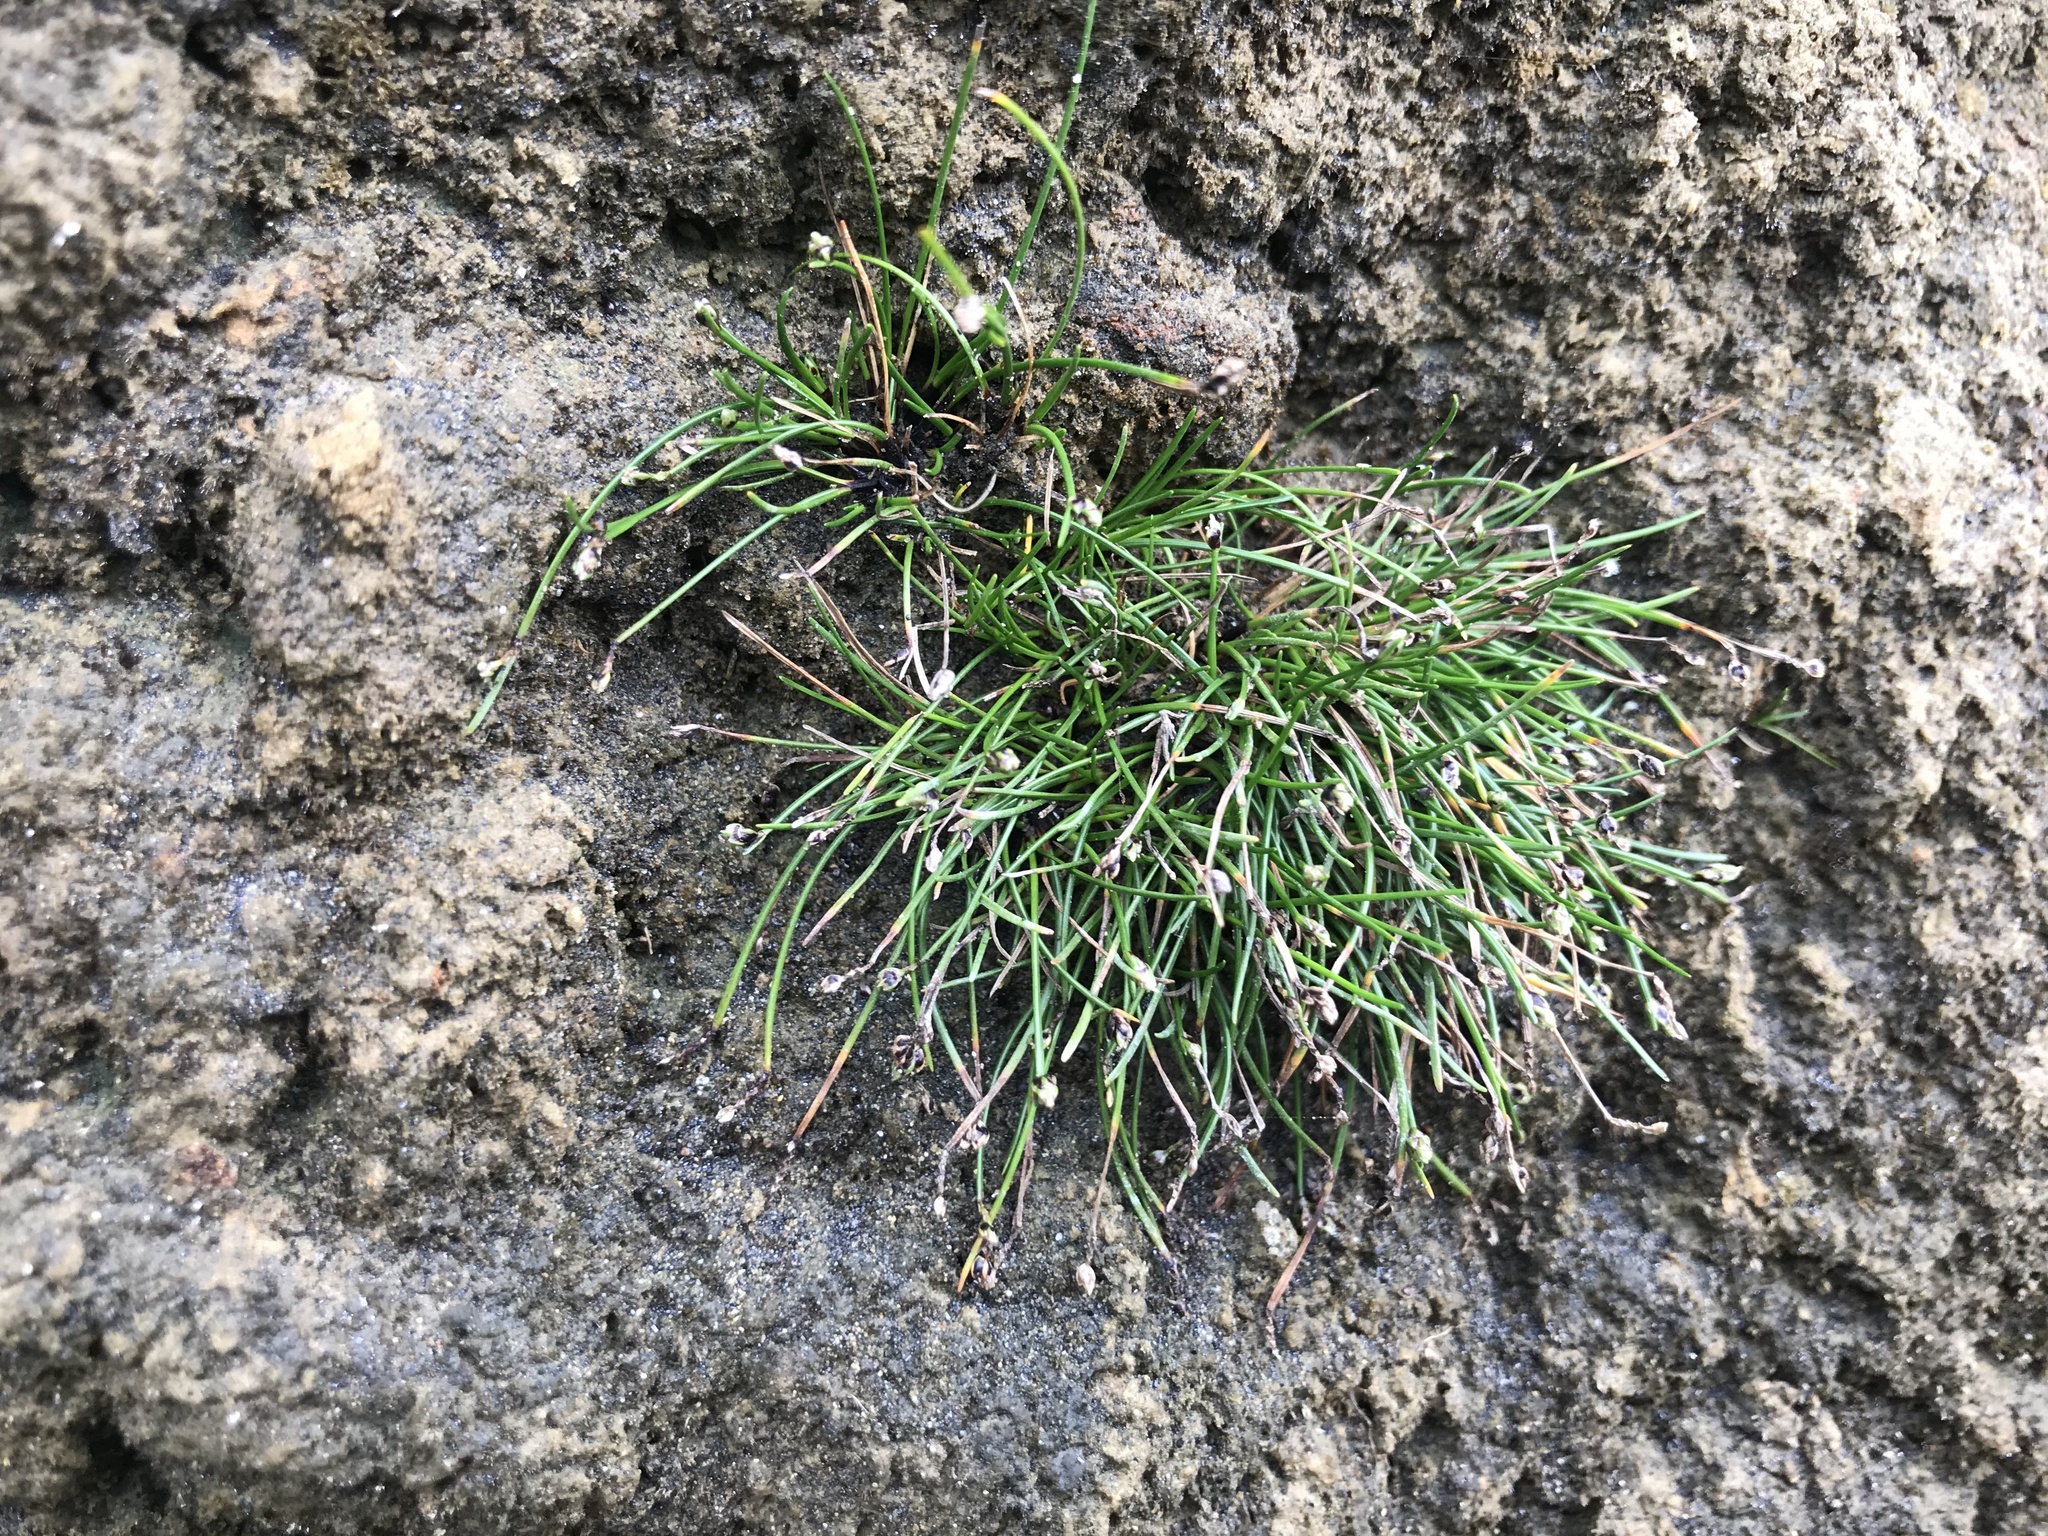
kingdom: Plantae
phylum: Tracheophyta
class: Liliopsida
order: Poales
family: Cyperaceae
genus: Isolepis
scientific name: Isolepis cernua
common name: Slender club-rush
